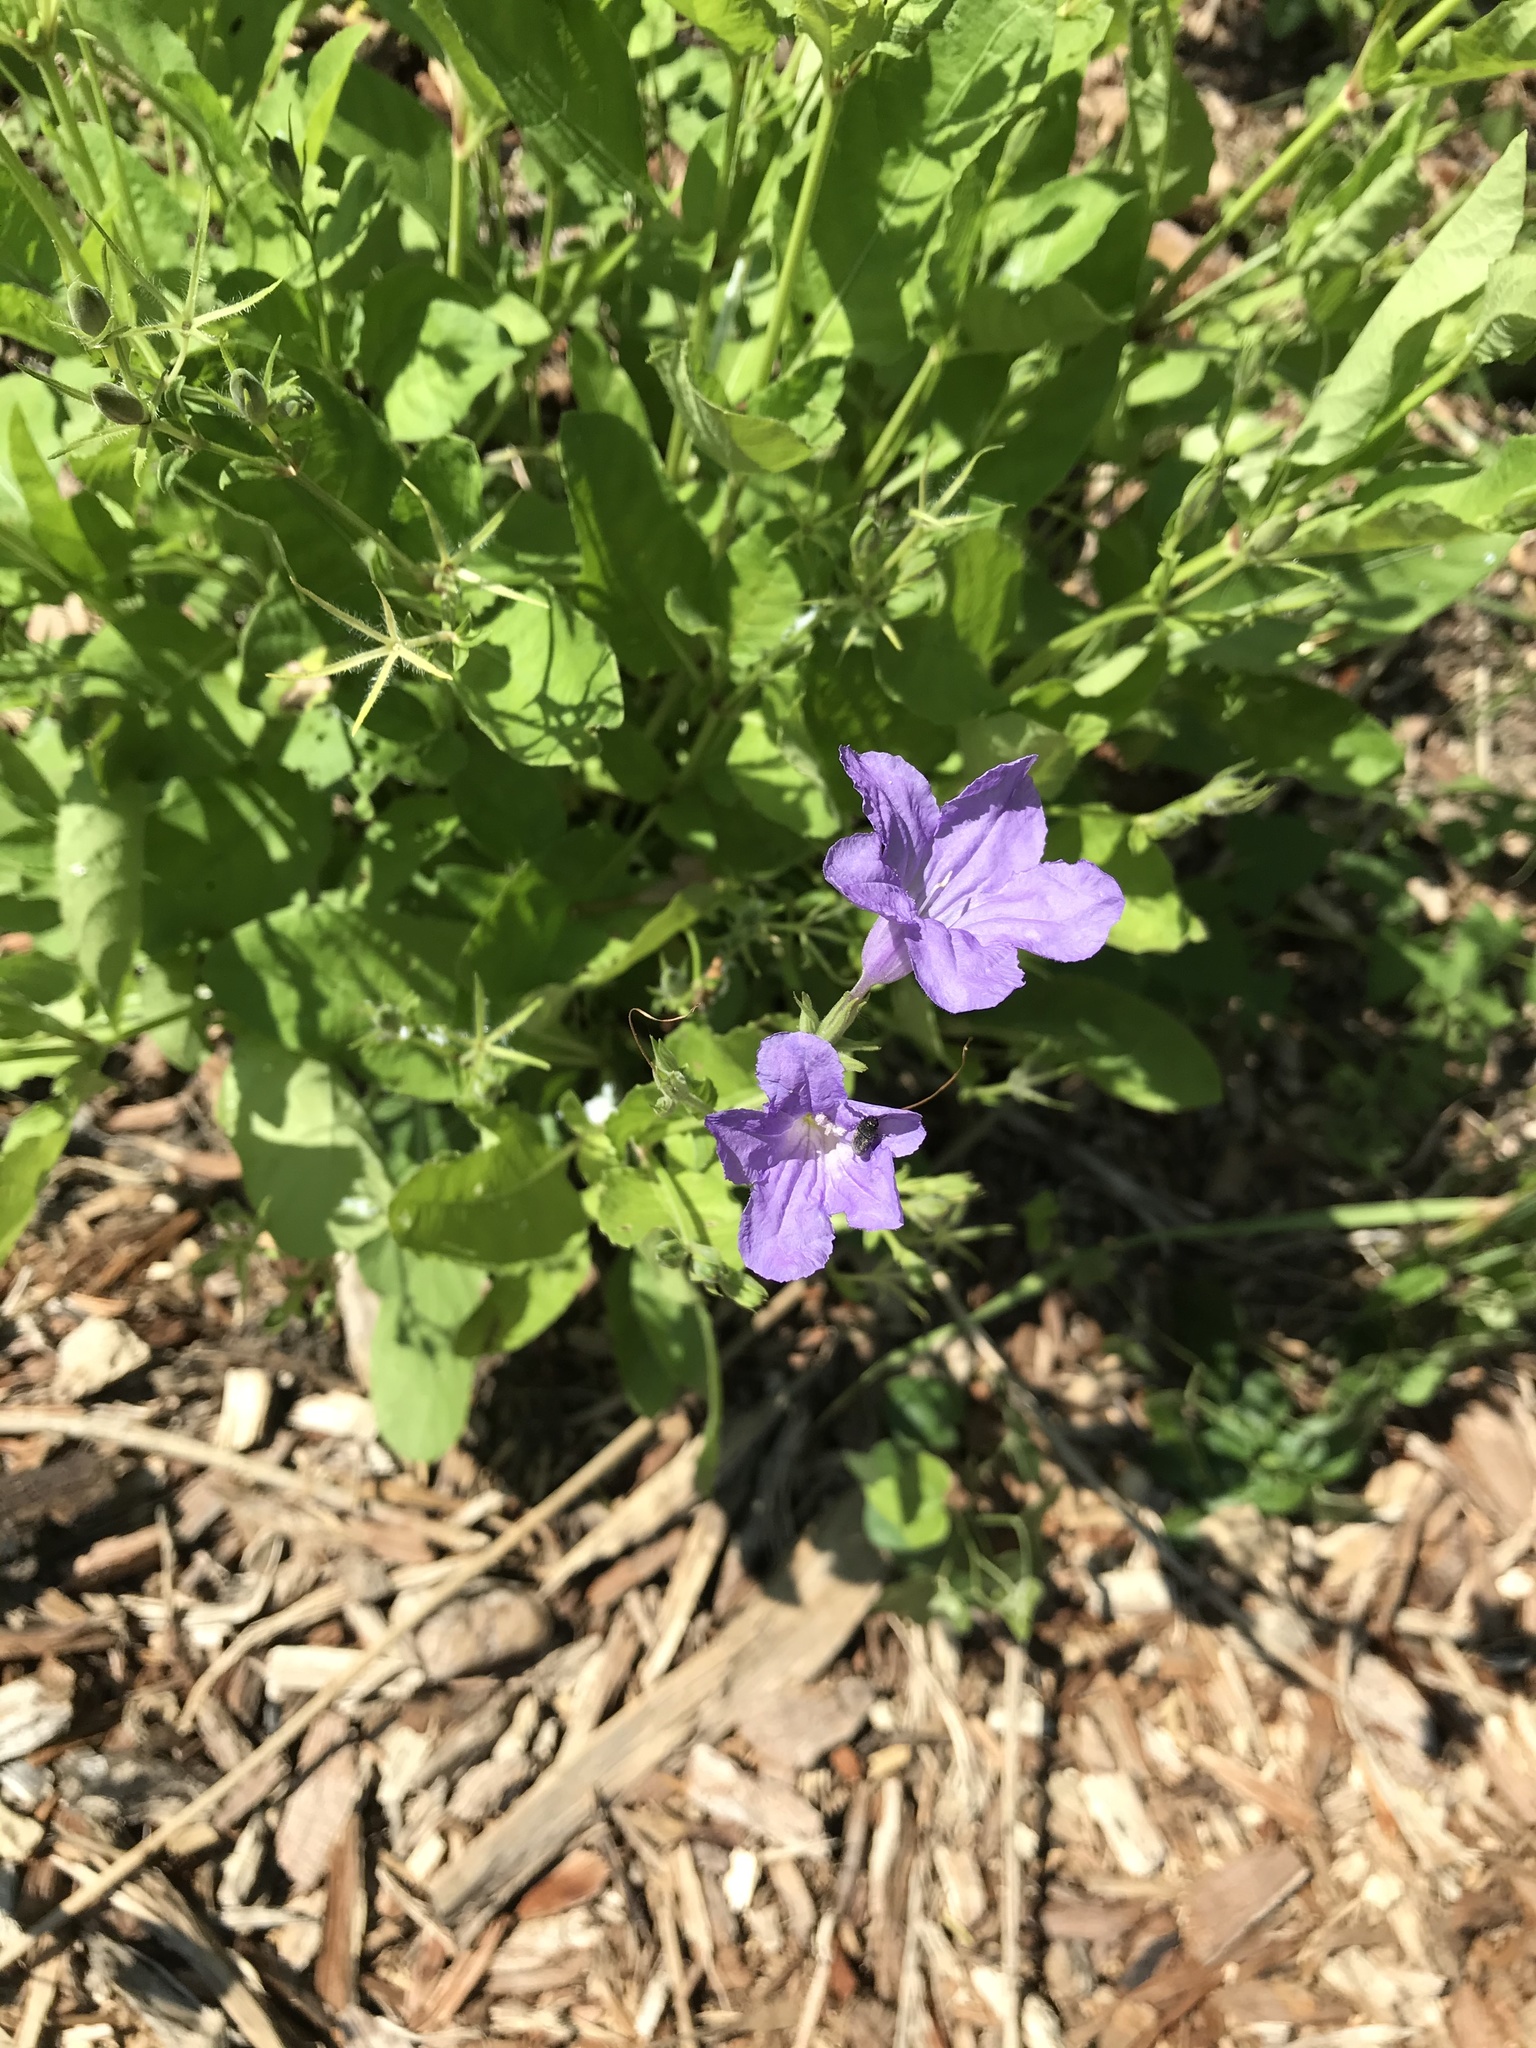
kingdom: Plantae
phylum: Tracheophyta
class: Magnoliopsida
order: Lamiales
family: Acanthaceae
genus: Ruellia
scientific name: Ruellia ciliatiflora
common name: Hairyflower wild petunia
